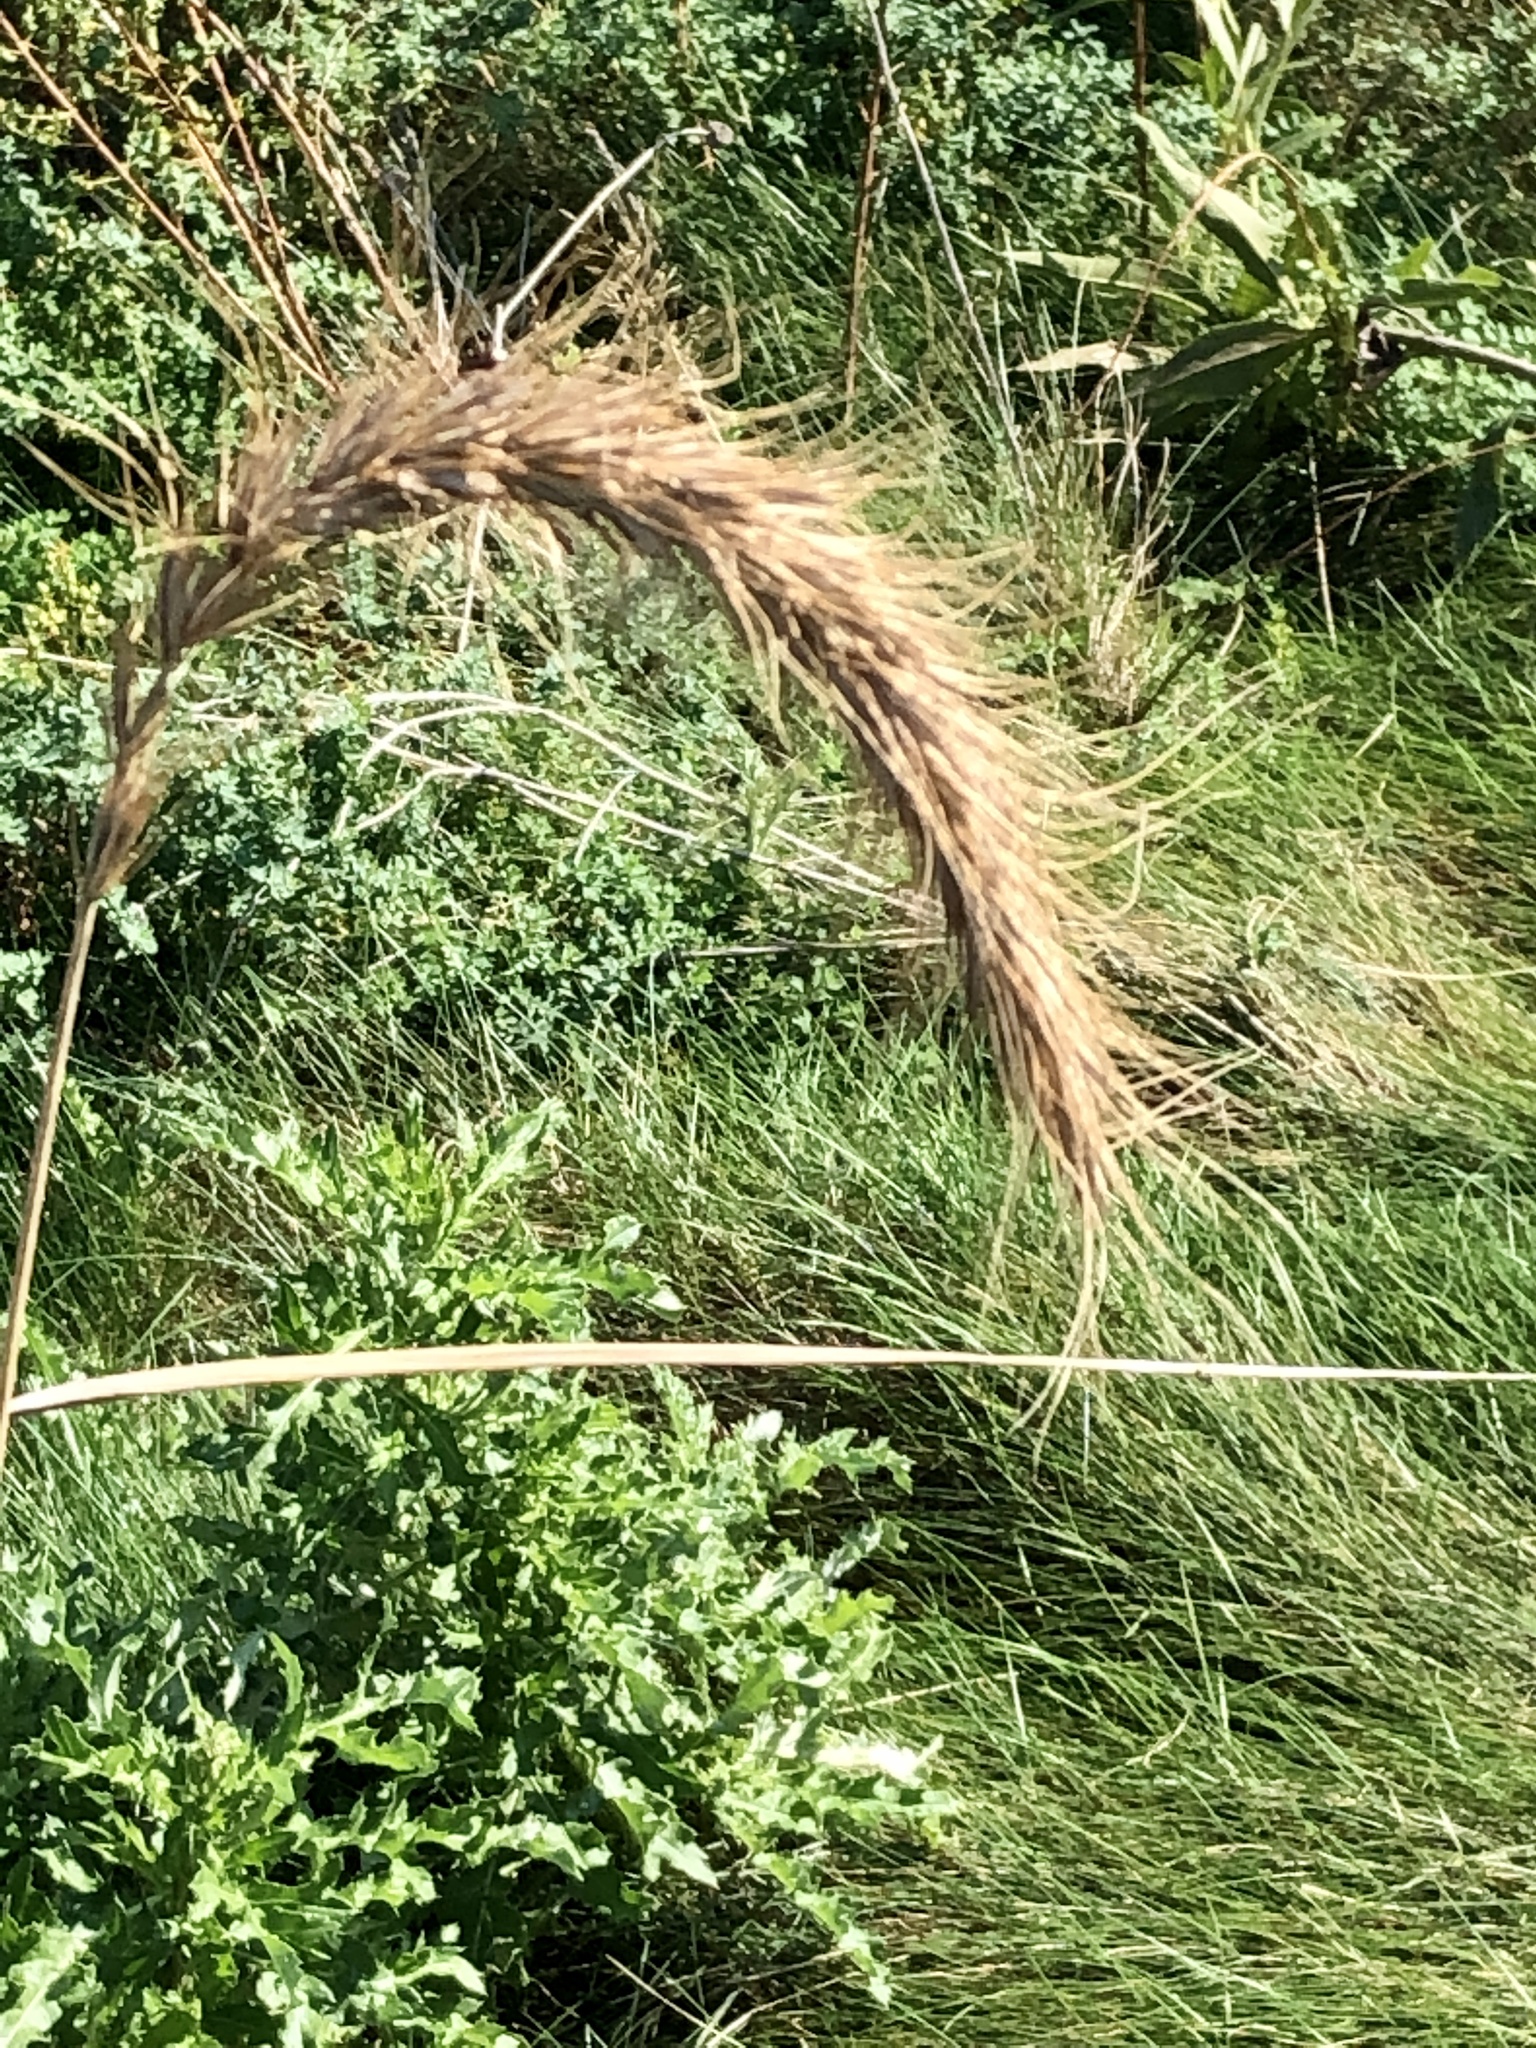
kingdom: Plantae
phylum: Tracheophyta
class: Liliopsida
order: Poales
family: Poaceae
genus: Elymus
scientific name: Elymus canadensis
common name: Canada wild rye
